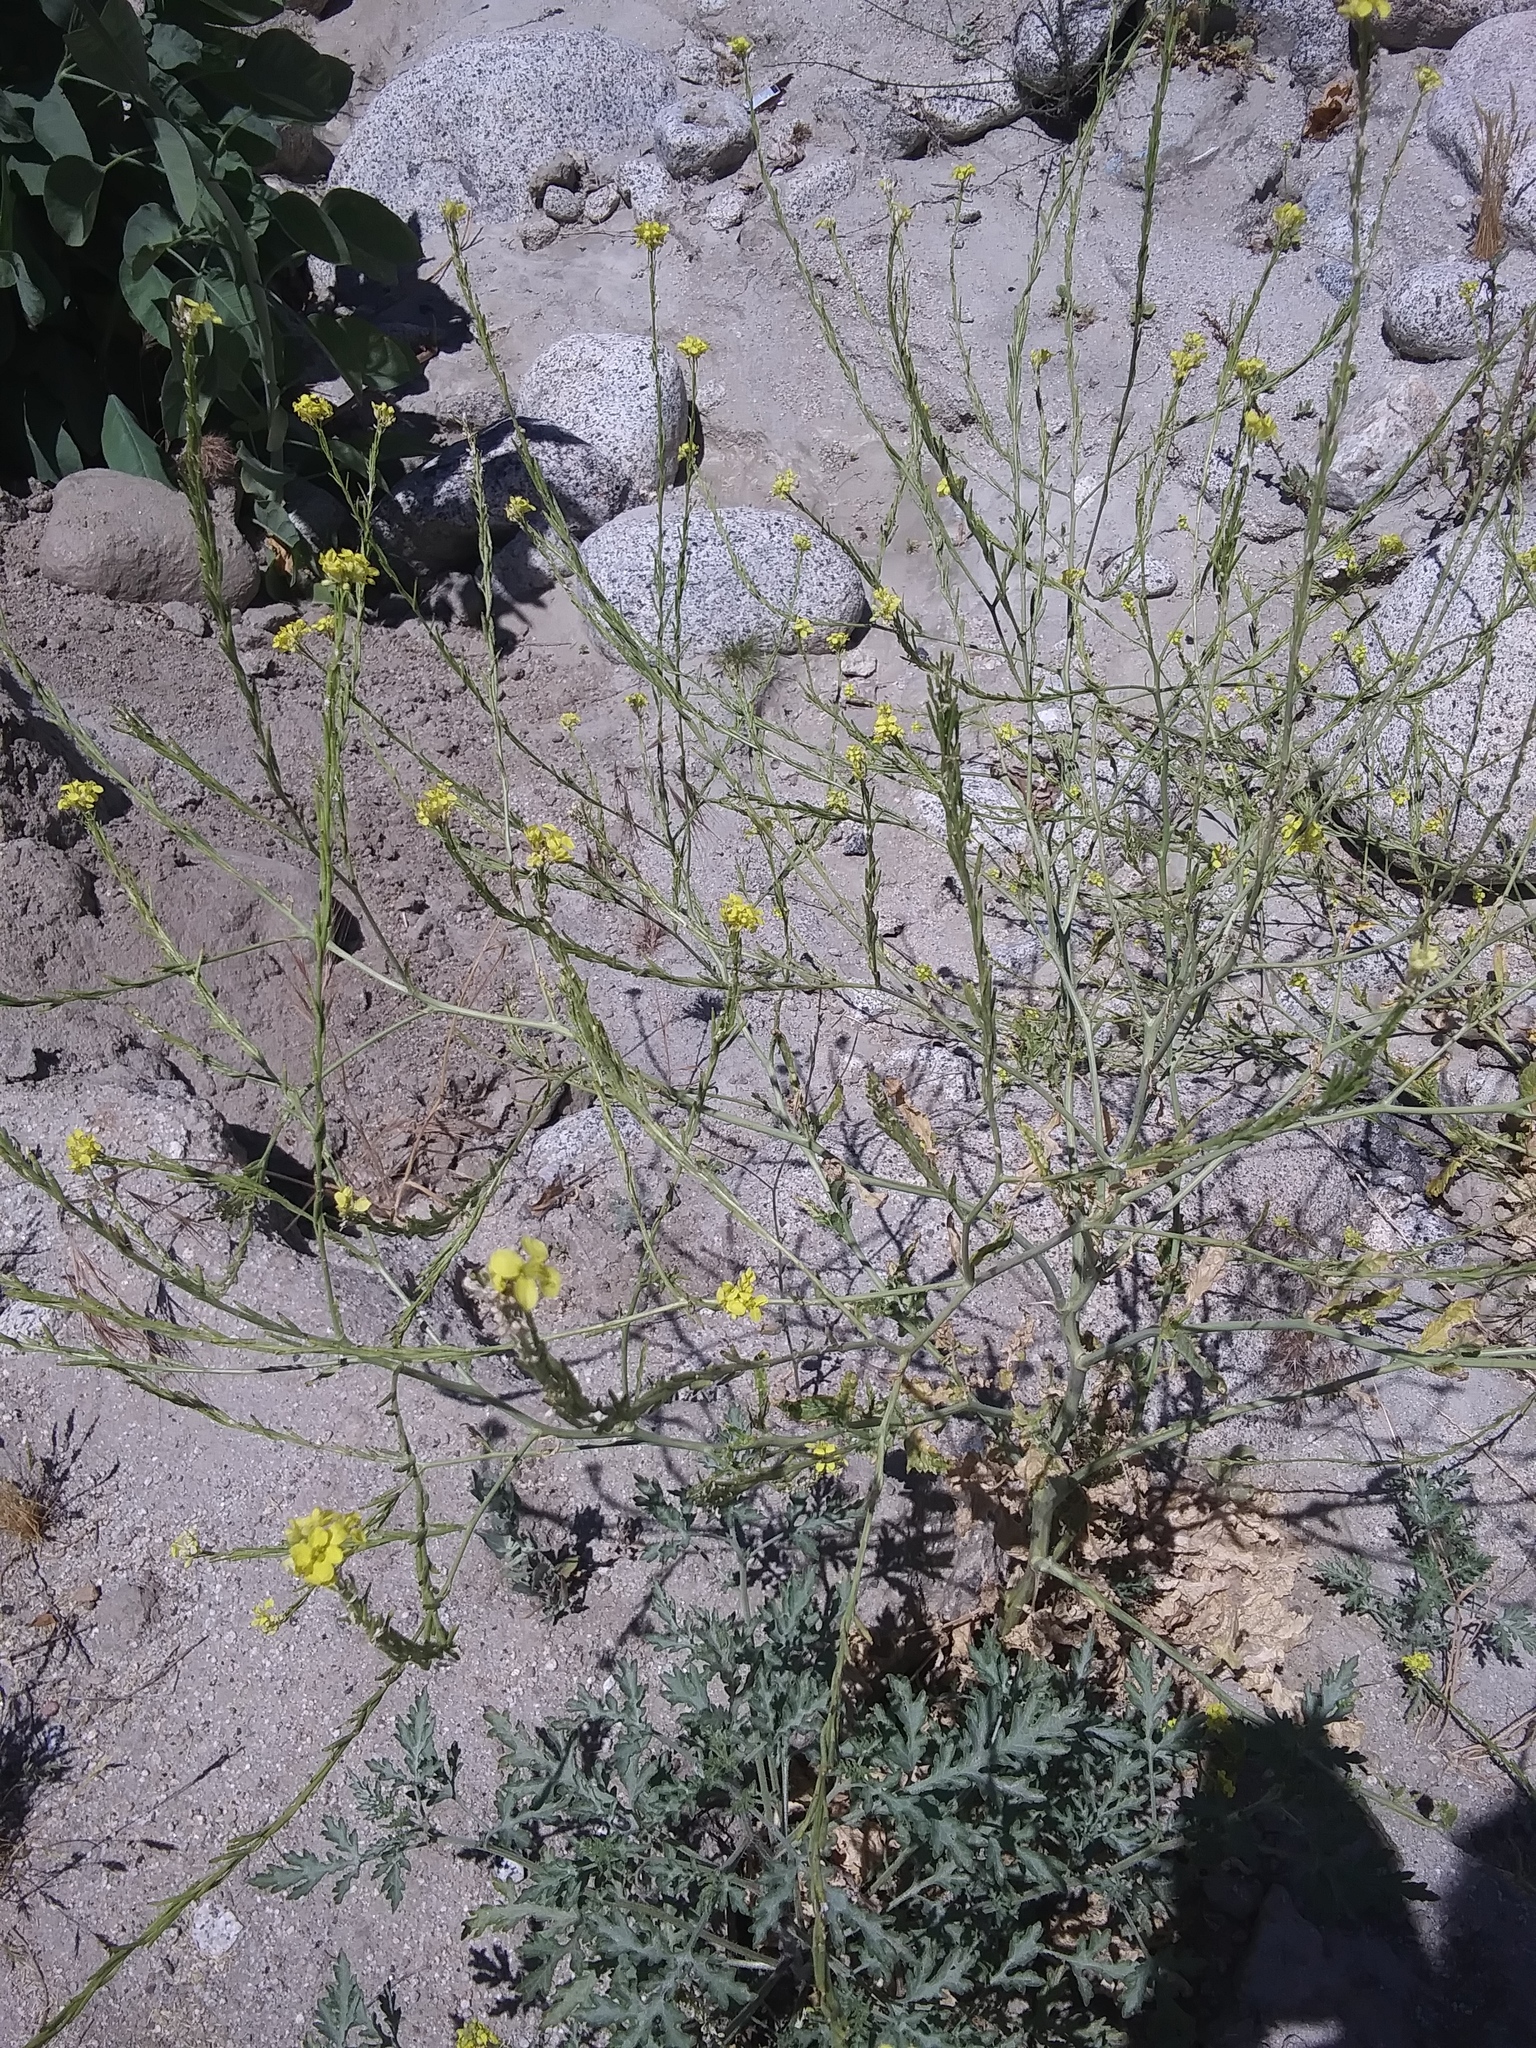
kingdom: Plantae
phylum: Tracheophyta
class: Magnoliopsida
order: Brassicales
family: Brassicaceae
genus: Hirschfeldia
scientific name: Hirschfeldia incana
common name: Hoary mustard
